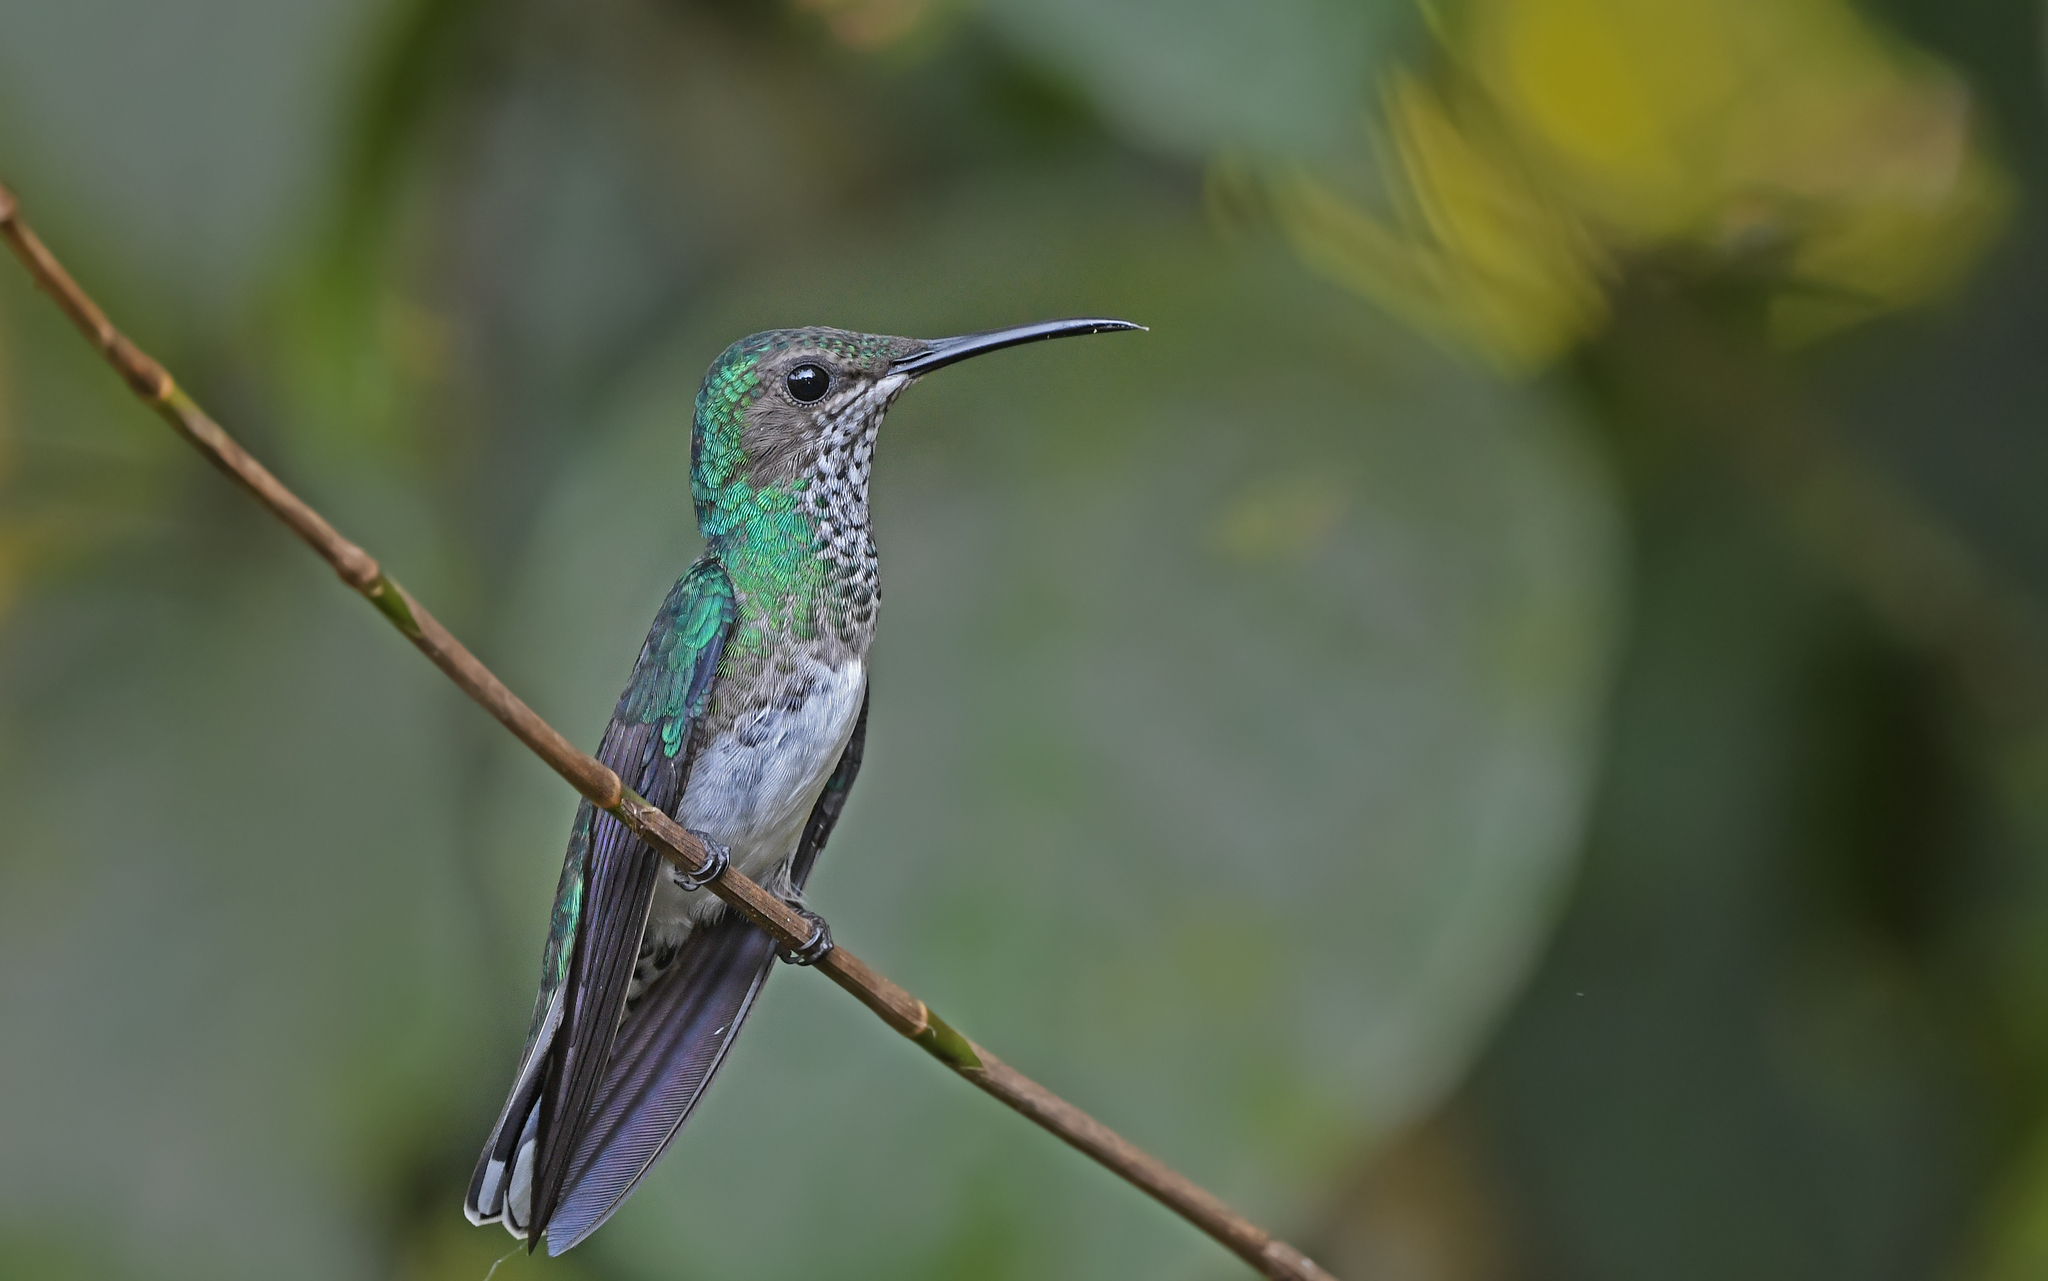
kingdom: Animalia
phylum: Chordata
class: Aves
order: Apodiformes
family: Trochilidae
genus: Florisuga
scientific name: Florisuga mellivora
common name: White-necked jacobin
